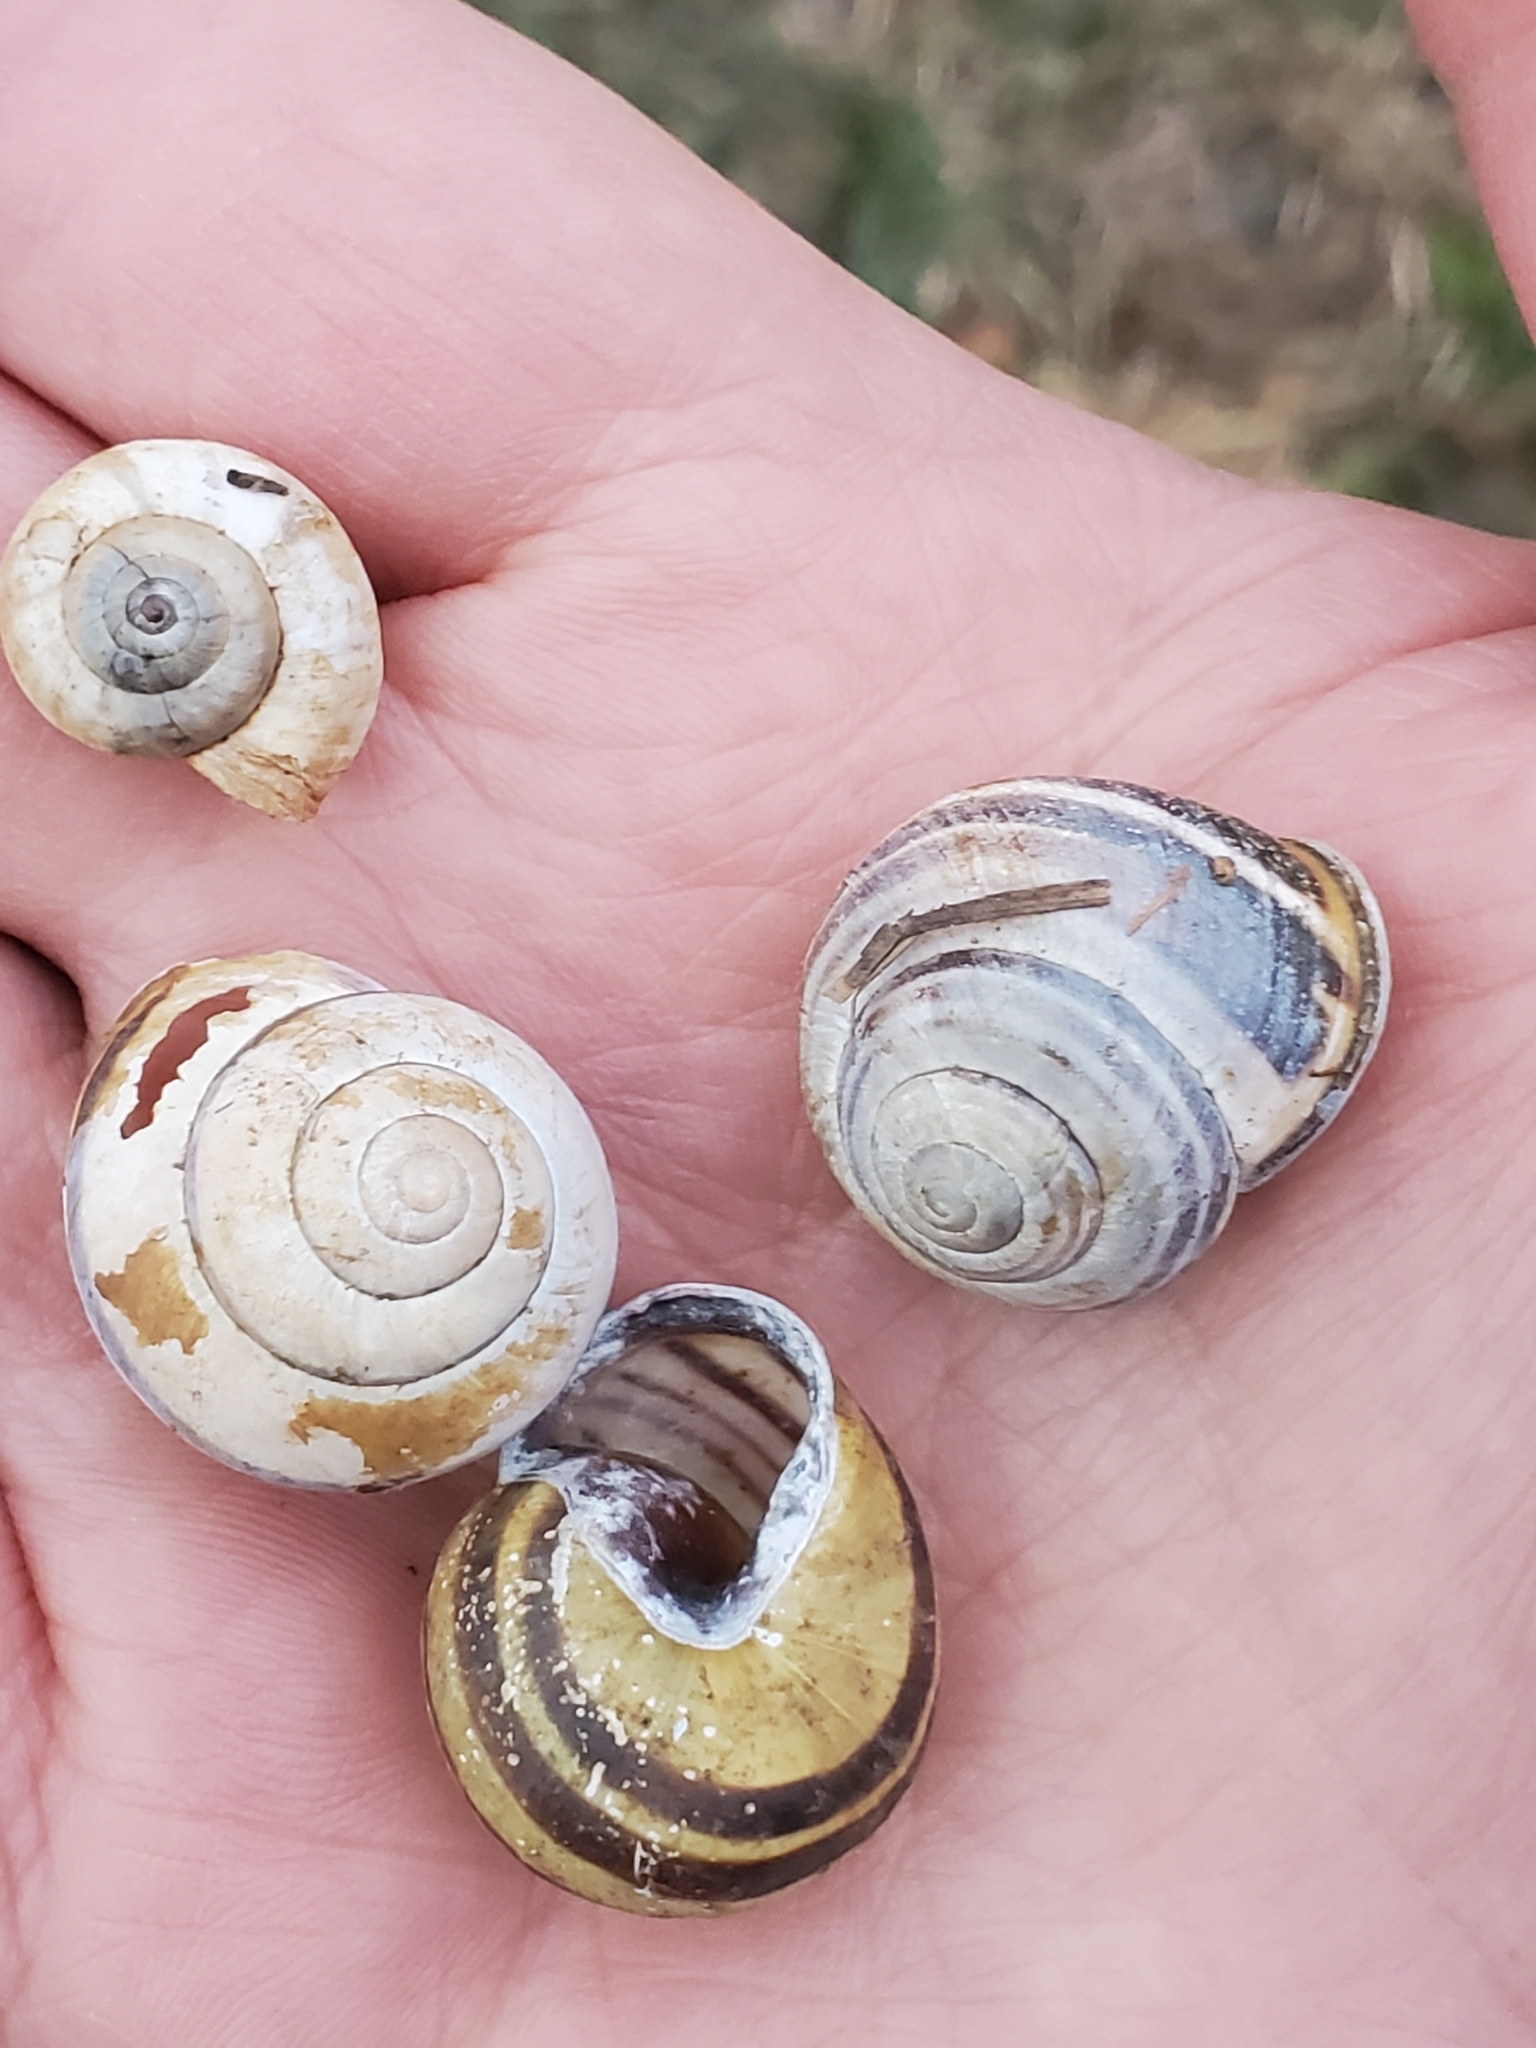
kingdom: Animalia
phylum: Mollusca
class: Gastropoda
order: Stylommatophora
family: Helicidae
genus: Cepaea
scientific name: Cepaea nemoralis
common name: Grovesnail
